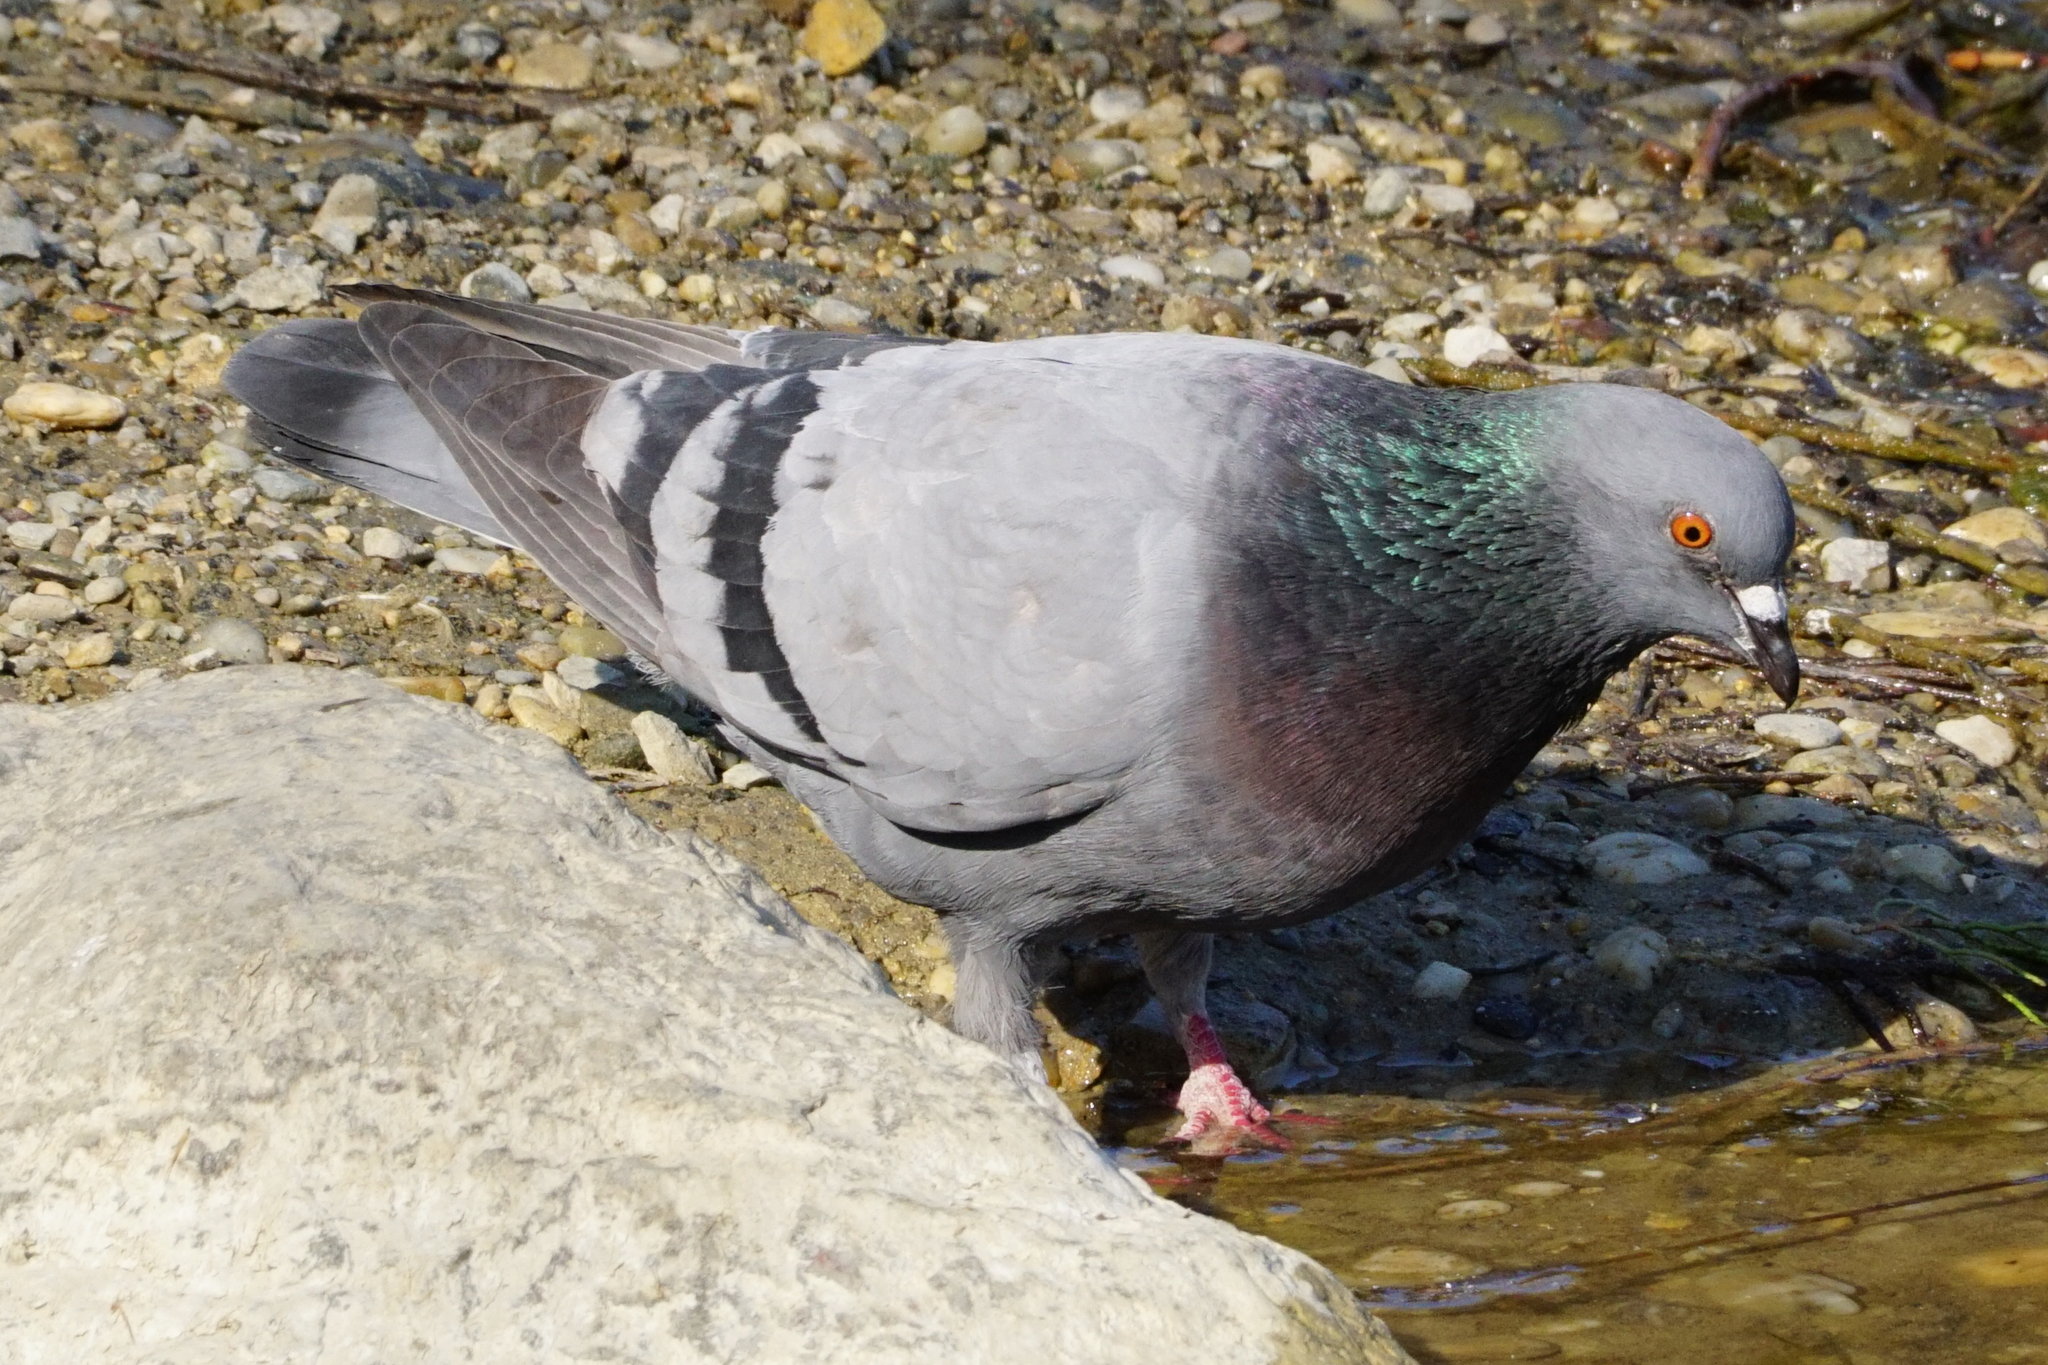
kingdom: Animalia
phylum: Chordata
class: Aves
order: Columbiformes
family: Columbidae
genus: Columba
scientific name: Columba livia
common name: Rock pigeon
